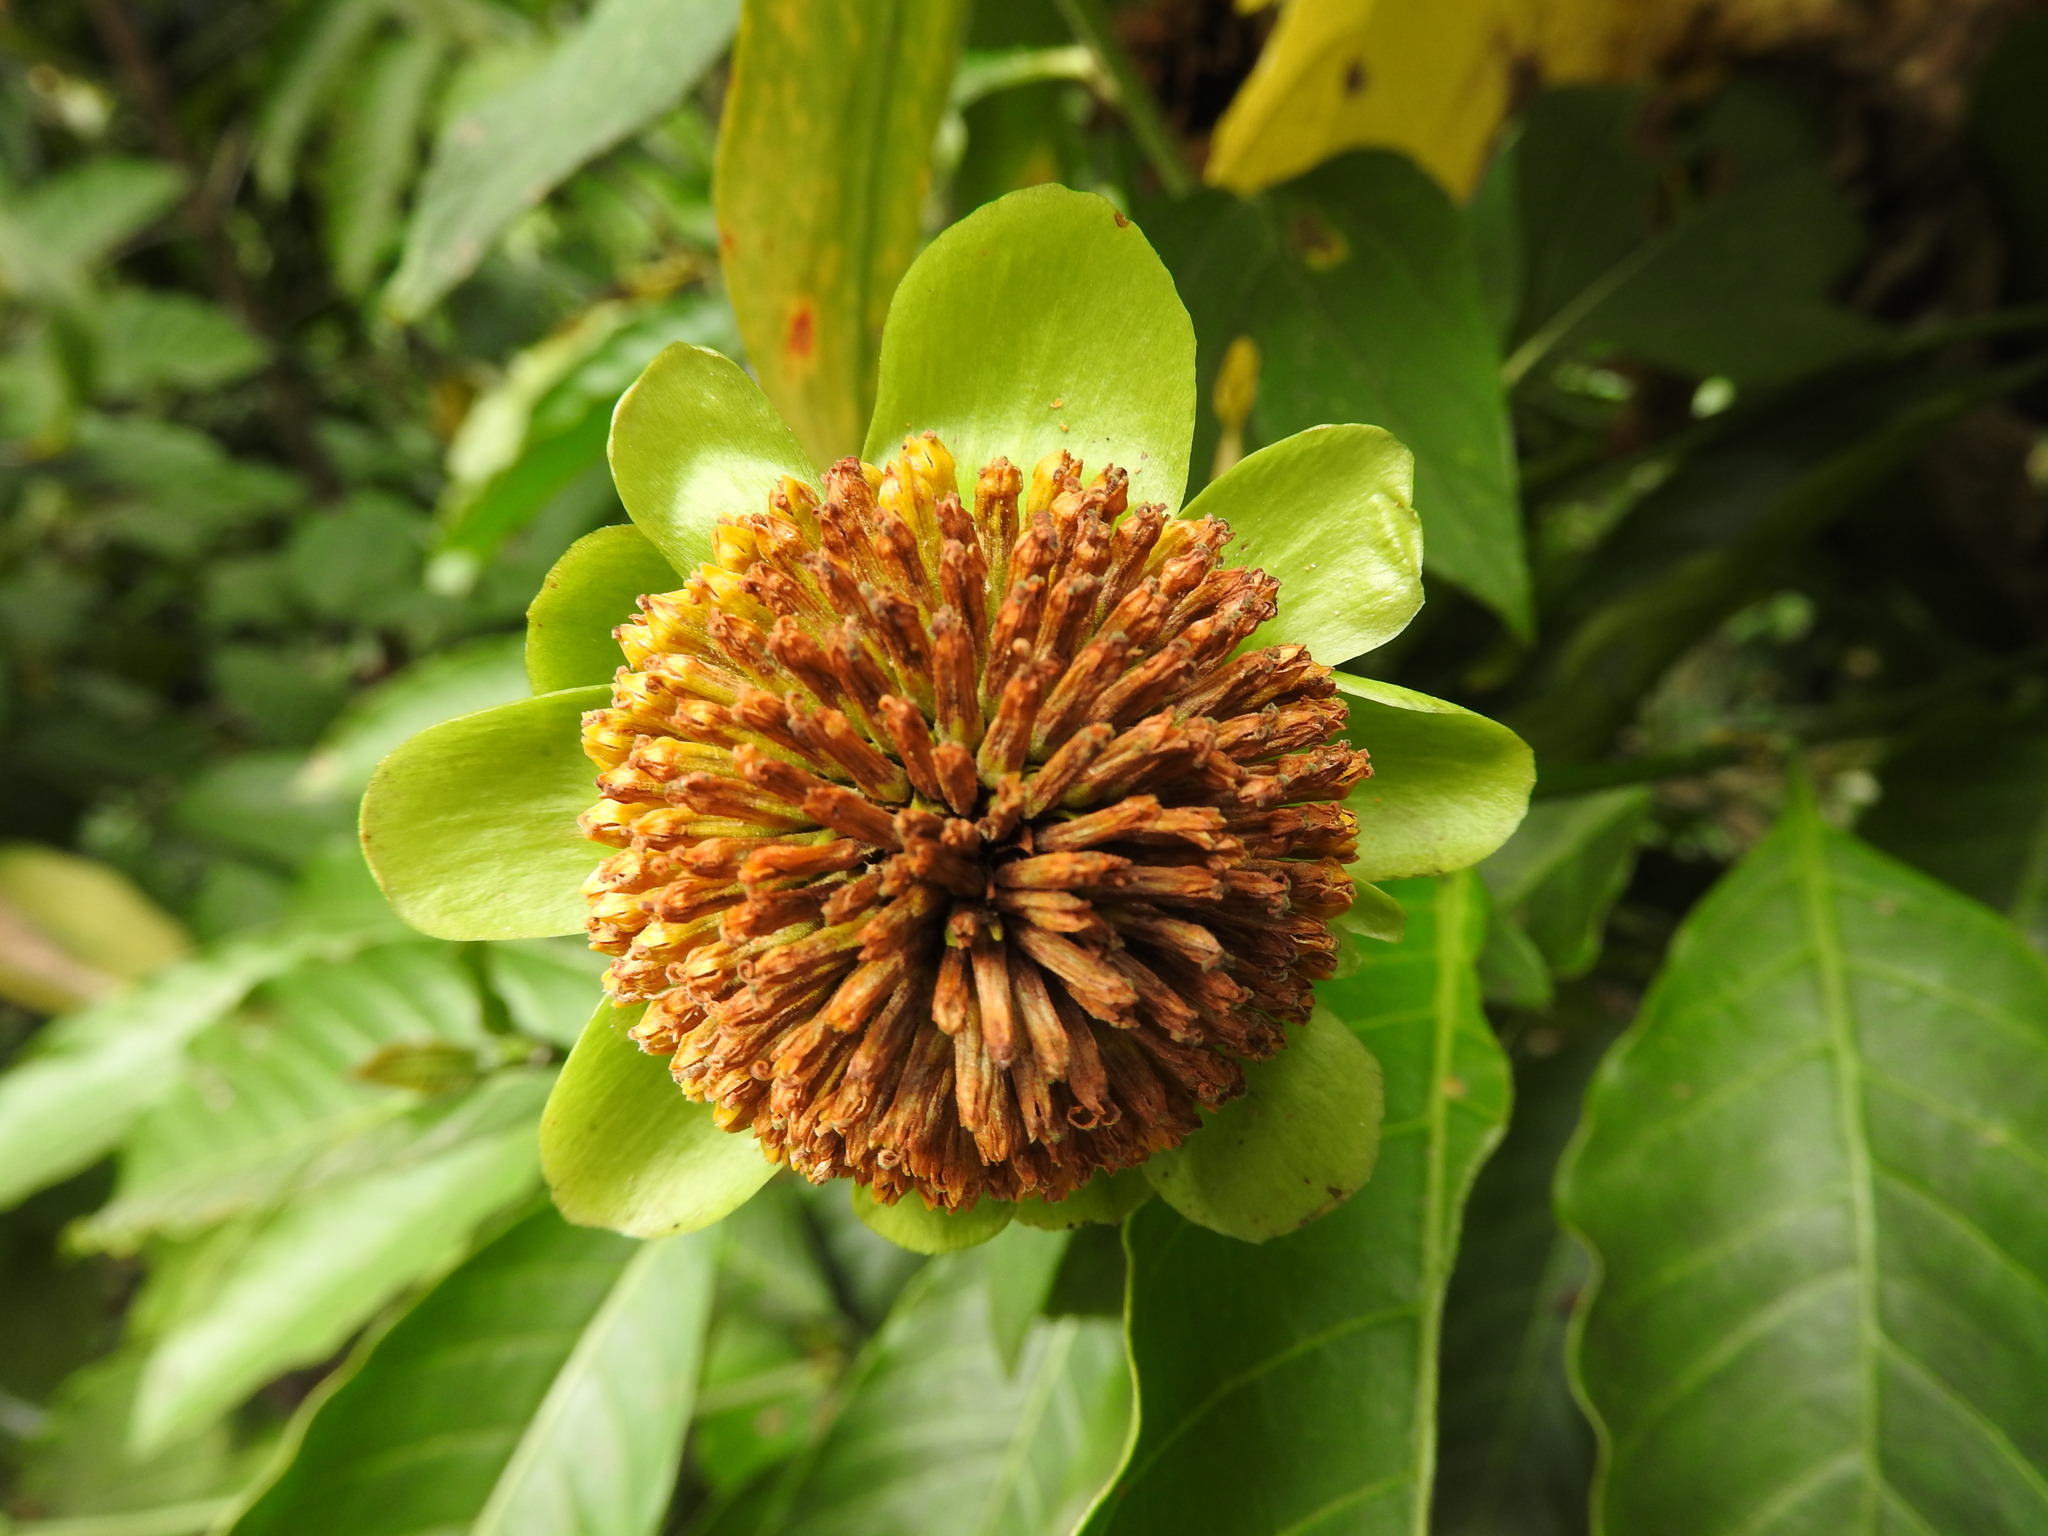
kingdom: Plantae
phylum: Tracheophyta
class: Magnoliopsida
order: Asterales
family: Asteraceae
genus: Tithonia
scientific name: Tithonia diversifolia
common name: Tree marigold
